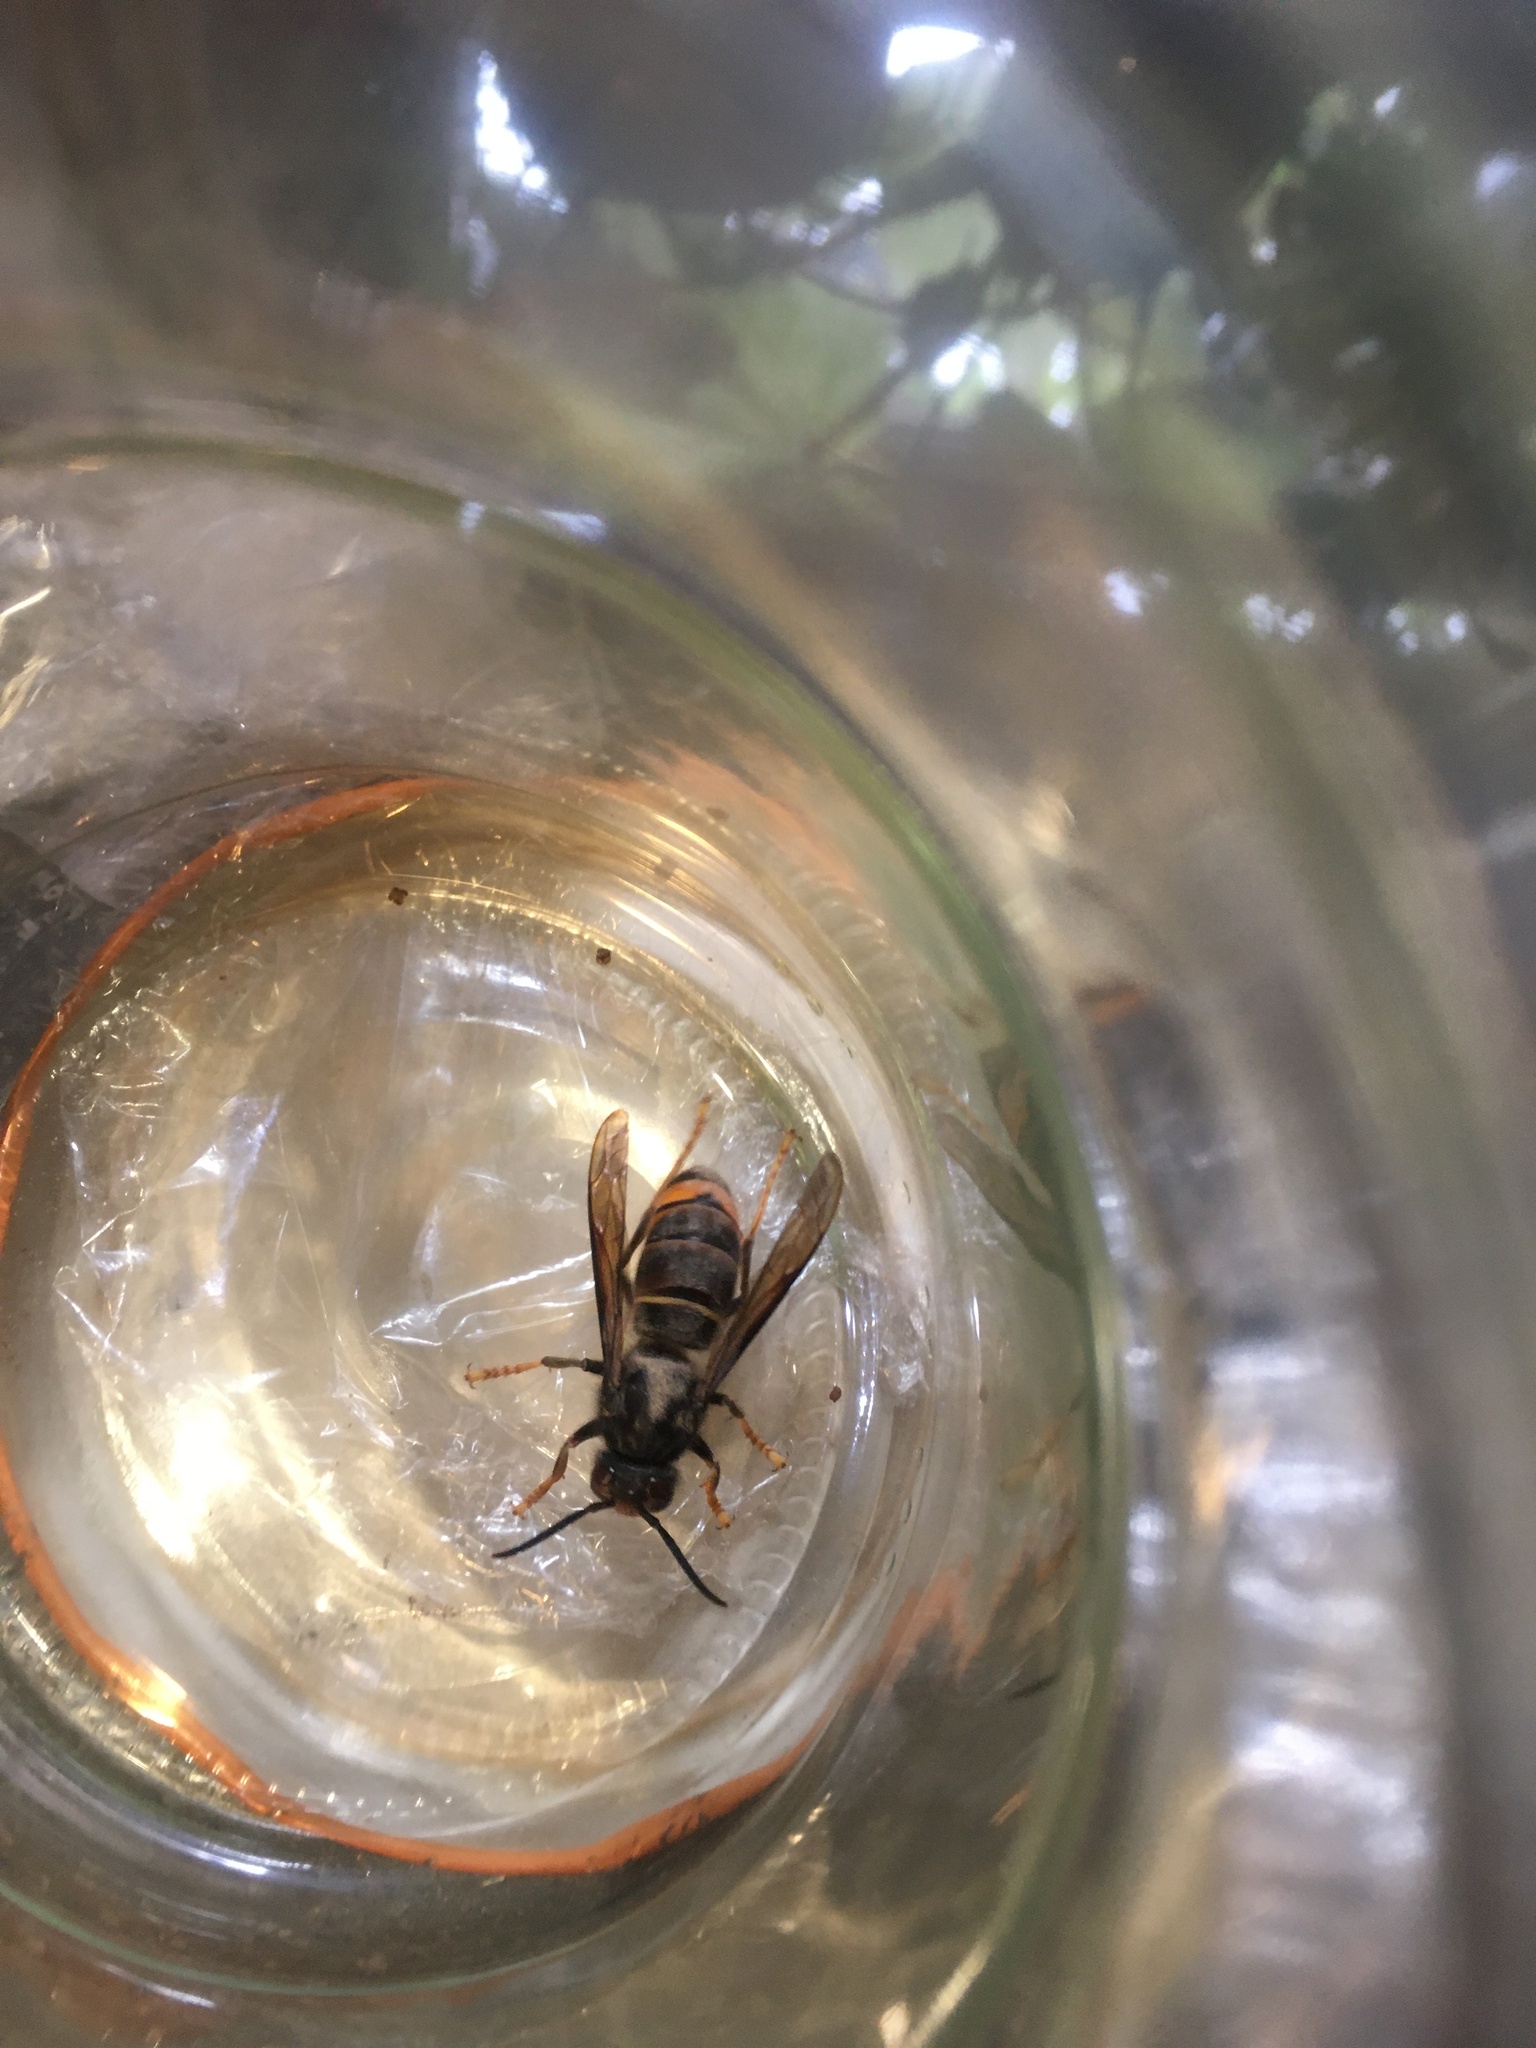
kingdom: Animalia
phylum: Arthropoda
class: Insecta
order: Hymenoptera
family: Vespidae
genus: Vespa
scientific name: Vespa velutina
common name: Asian hornet
